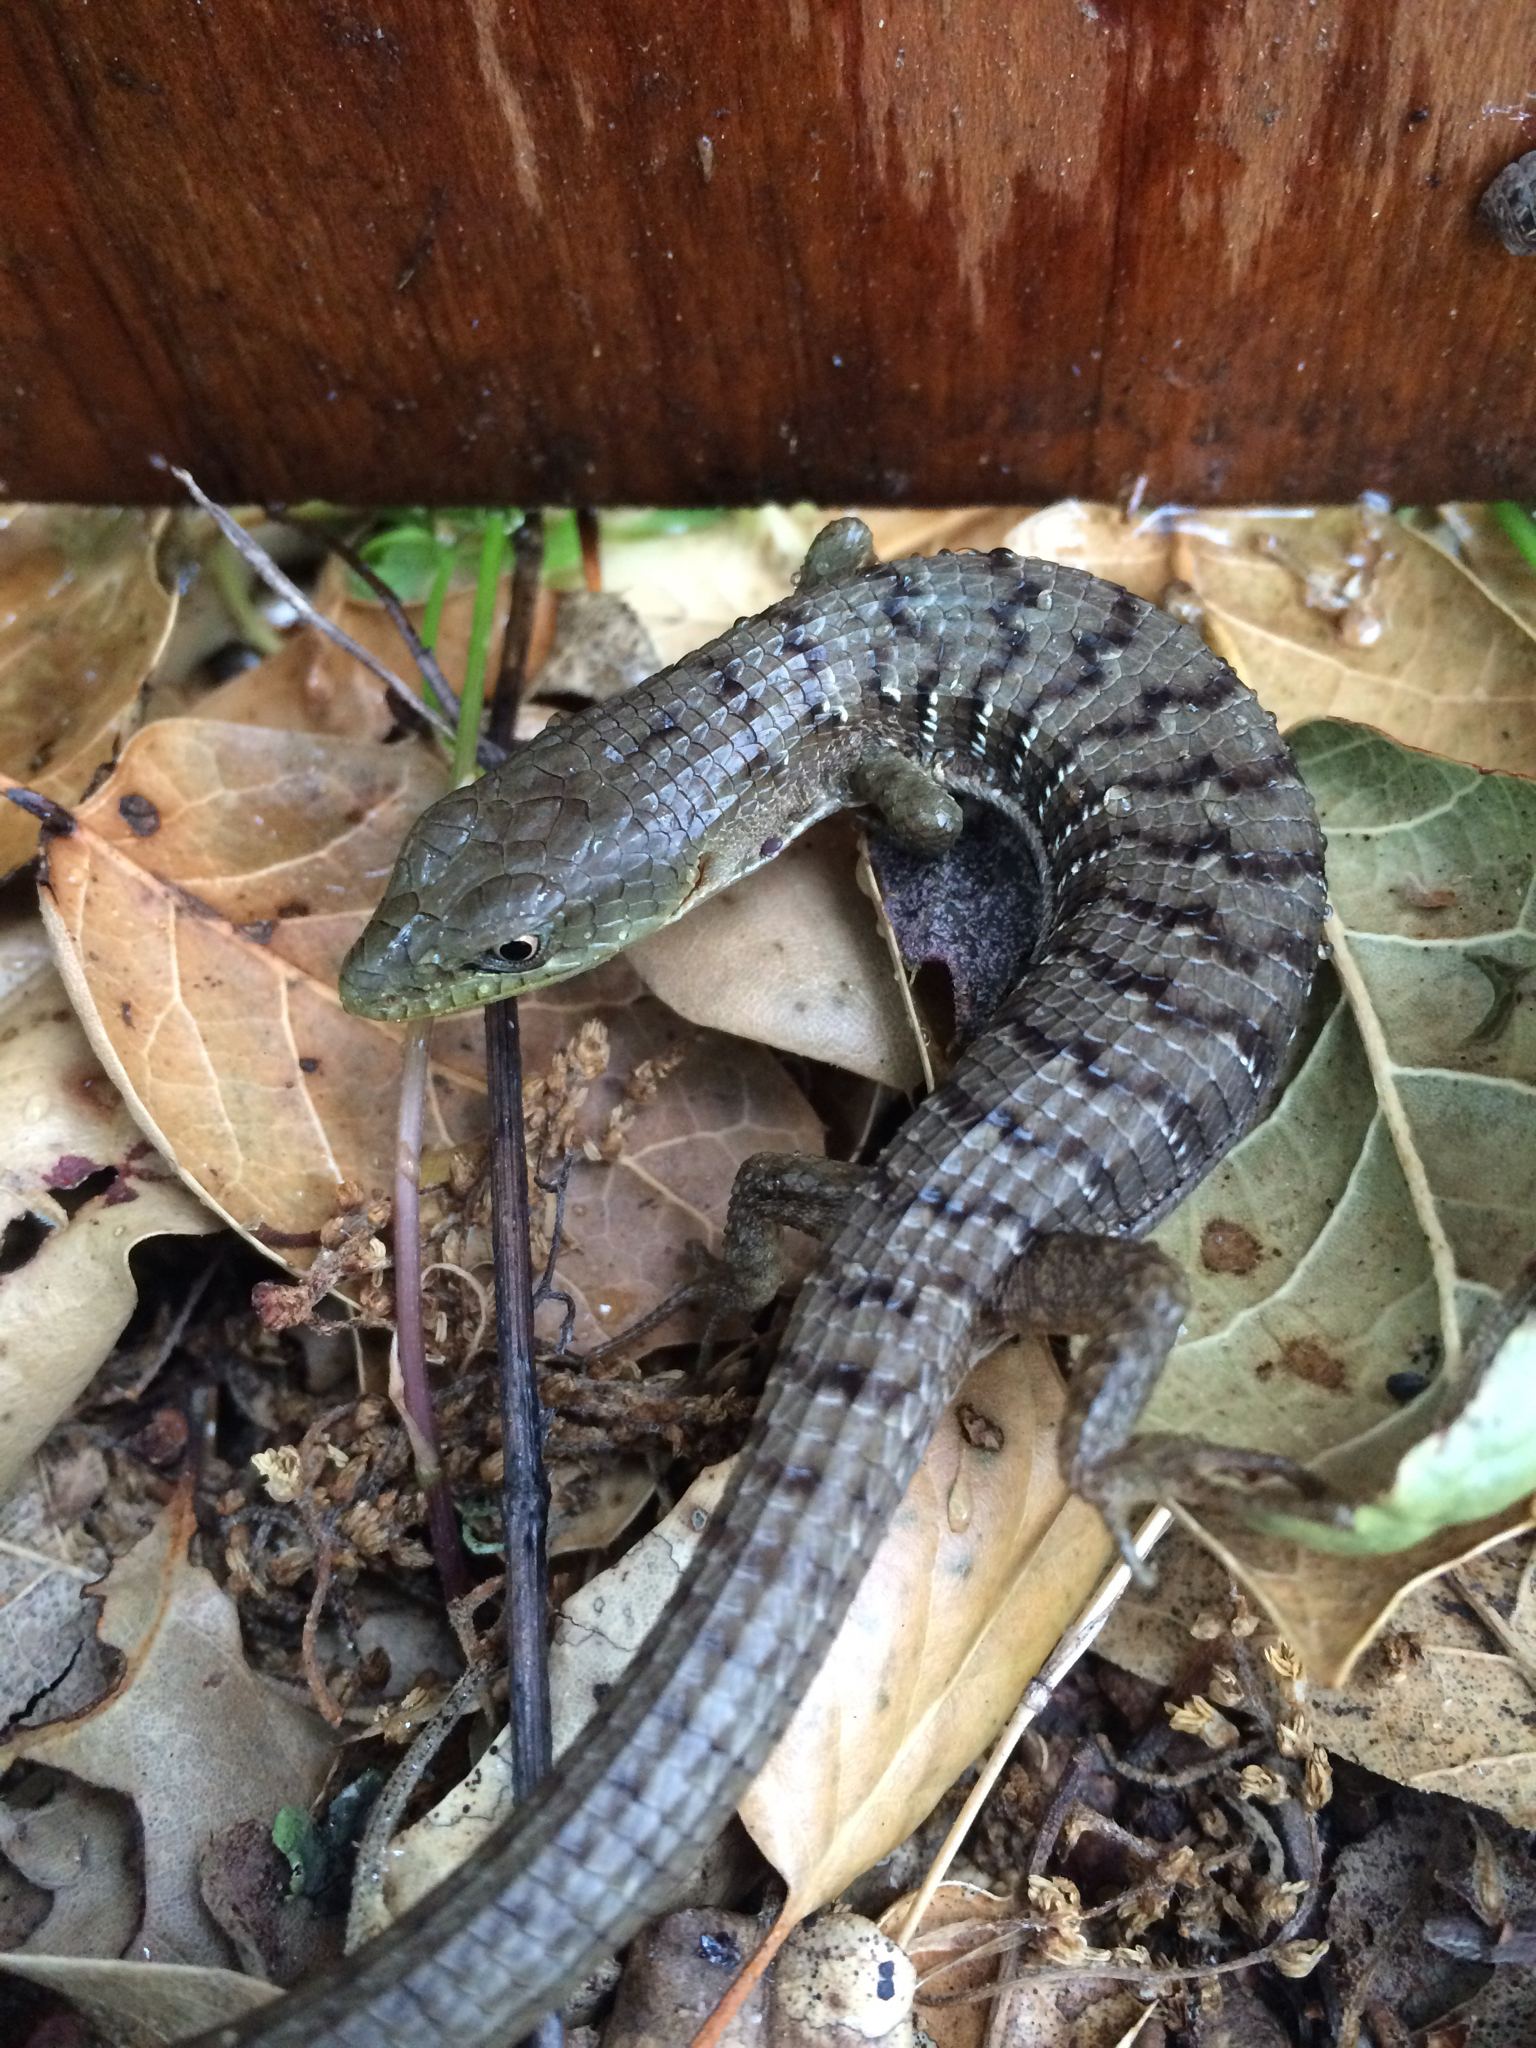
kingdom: Animalia
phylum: Chordata
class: Squamata
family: Anguidae
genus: Elgaria
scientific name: Elgaria multicarinata
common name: Southern alligator lizard
